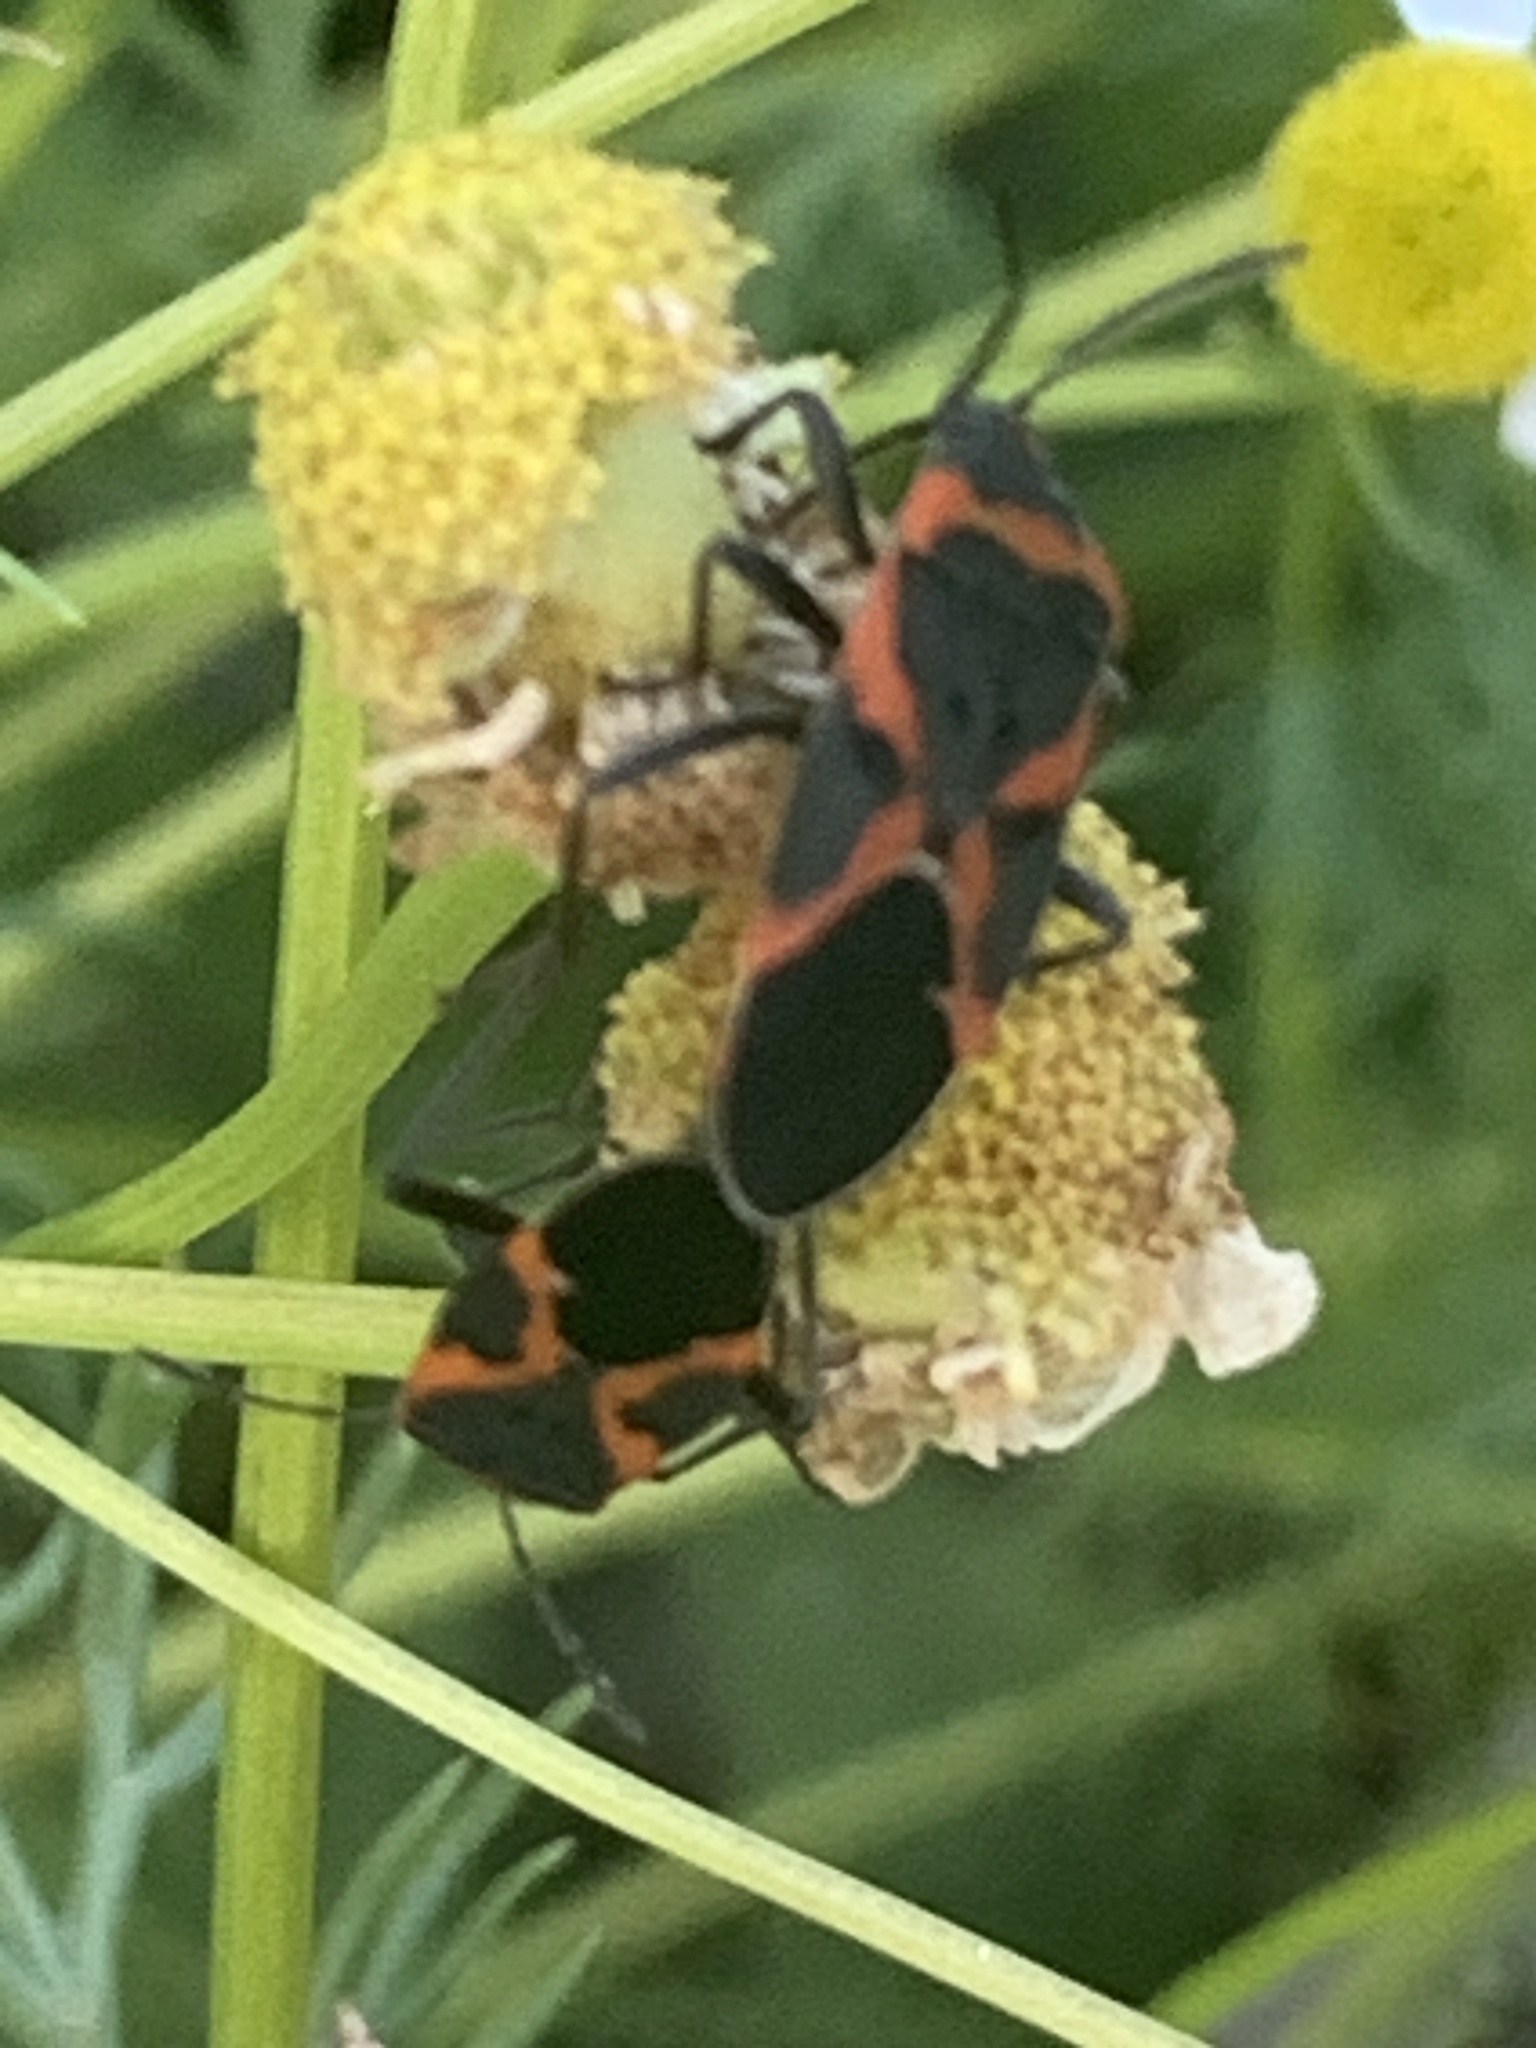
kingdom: Animalia
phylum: Arthropoda
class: Insecta
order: Hemiptera
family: Lygaeidae
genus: Lygaeus
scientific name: Lygaeus kalmii
